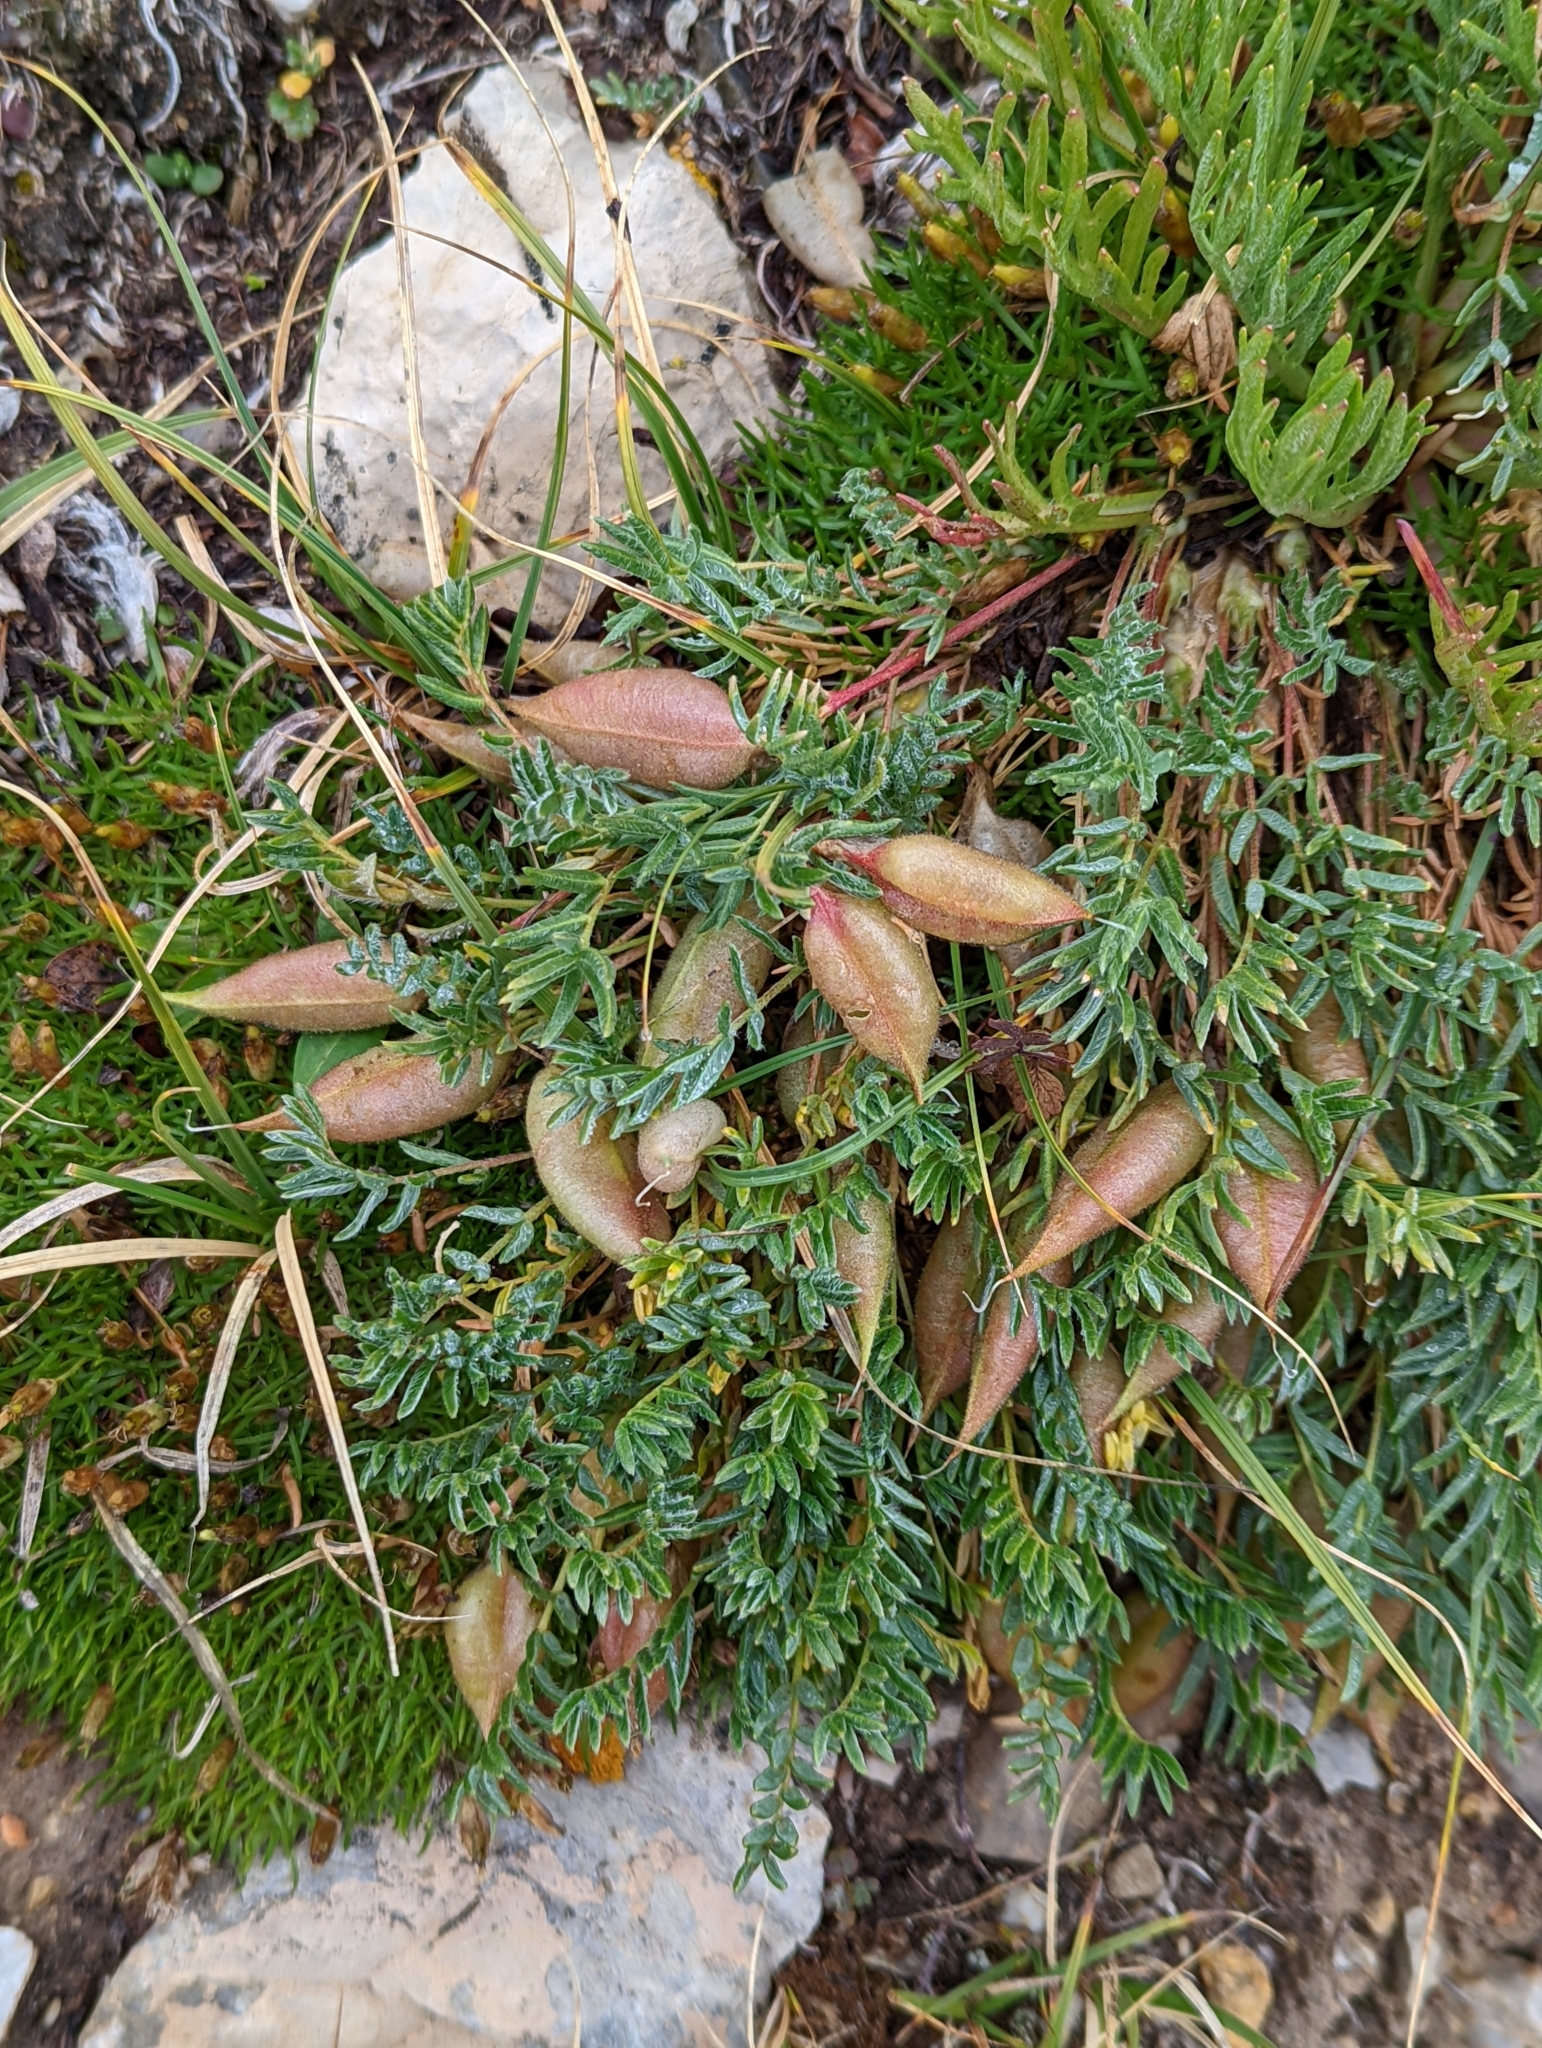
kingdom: Plantae
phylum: Tracheophyta
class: Magnoliopsida
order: Fabales
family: Fabaceae
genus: Oxytropis
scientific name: Oxytropis podocarpa
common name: Gray's oxytrope
